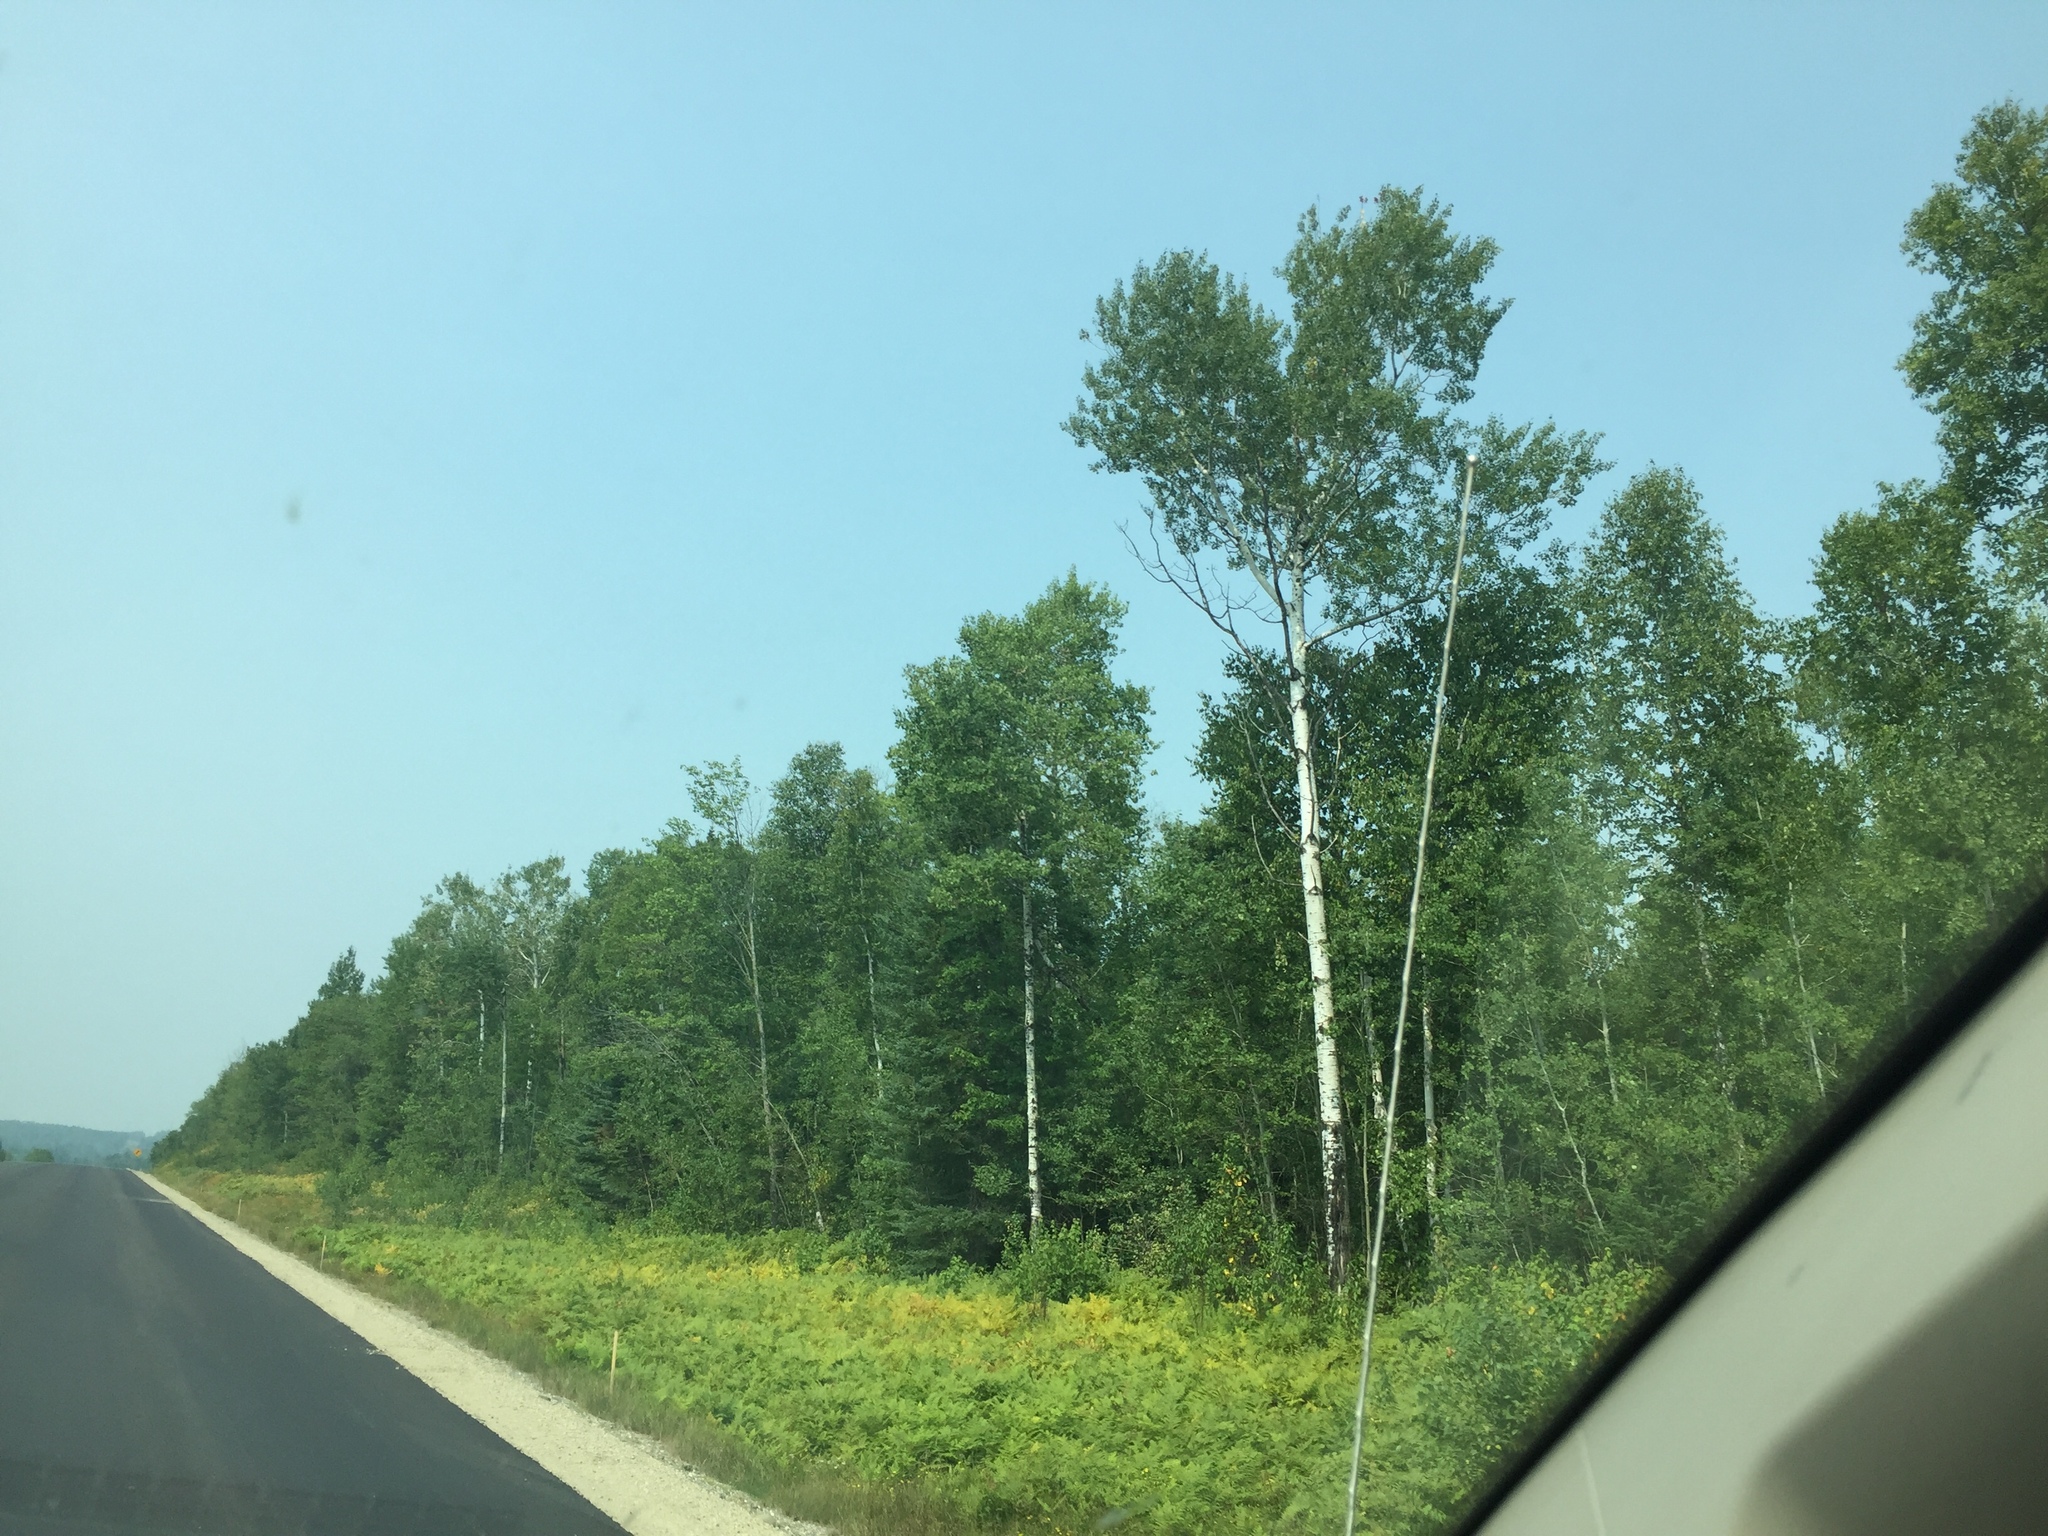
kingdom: Plantae
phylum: Tracheophyta
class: Magnoliopsida
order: Malpighiales
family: Salicaceae
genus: Populus
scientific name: Populus tremuloides
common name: Quaking aspen
